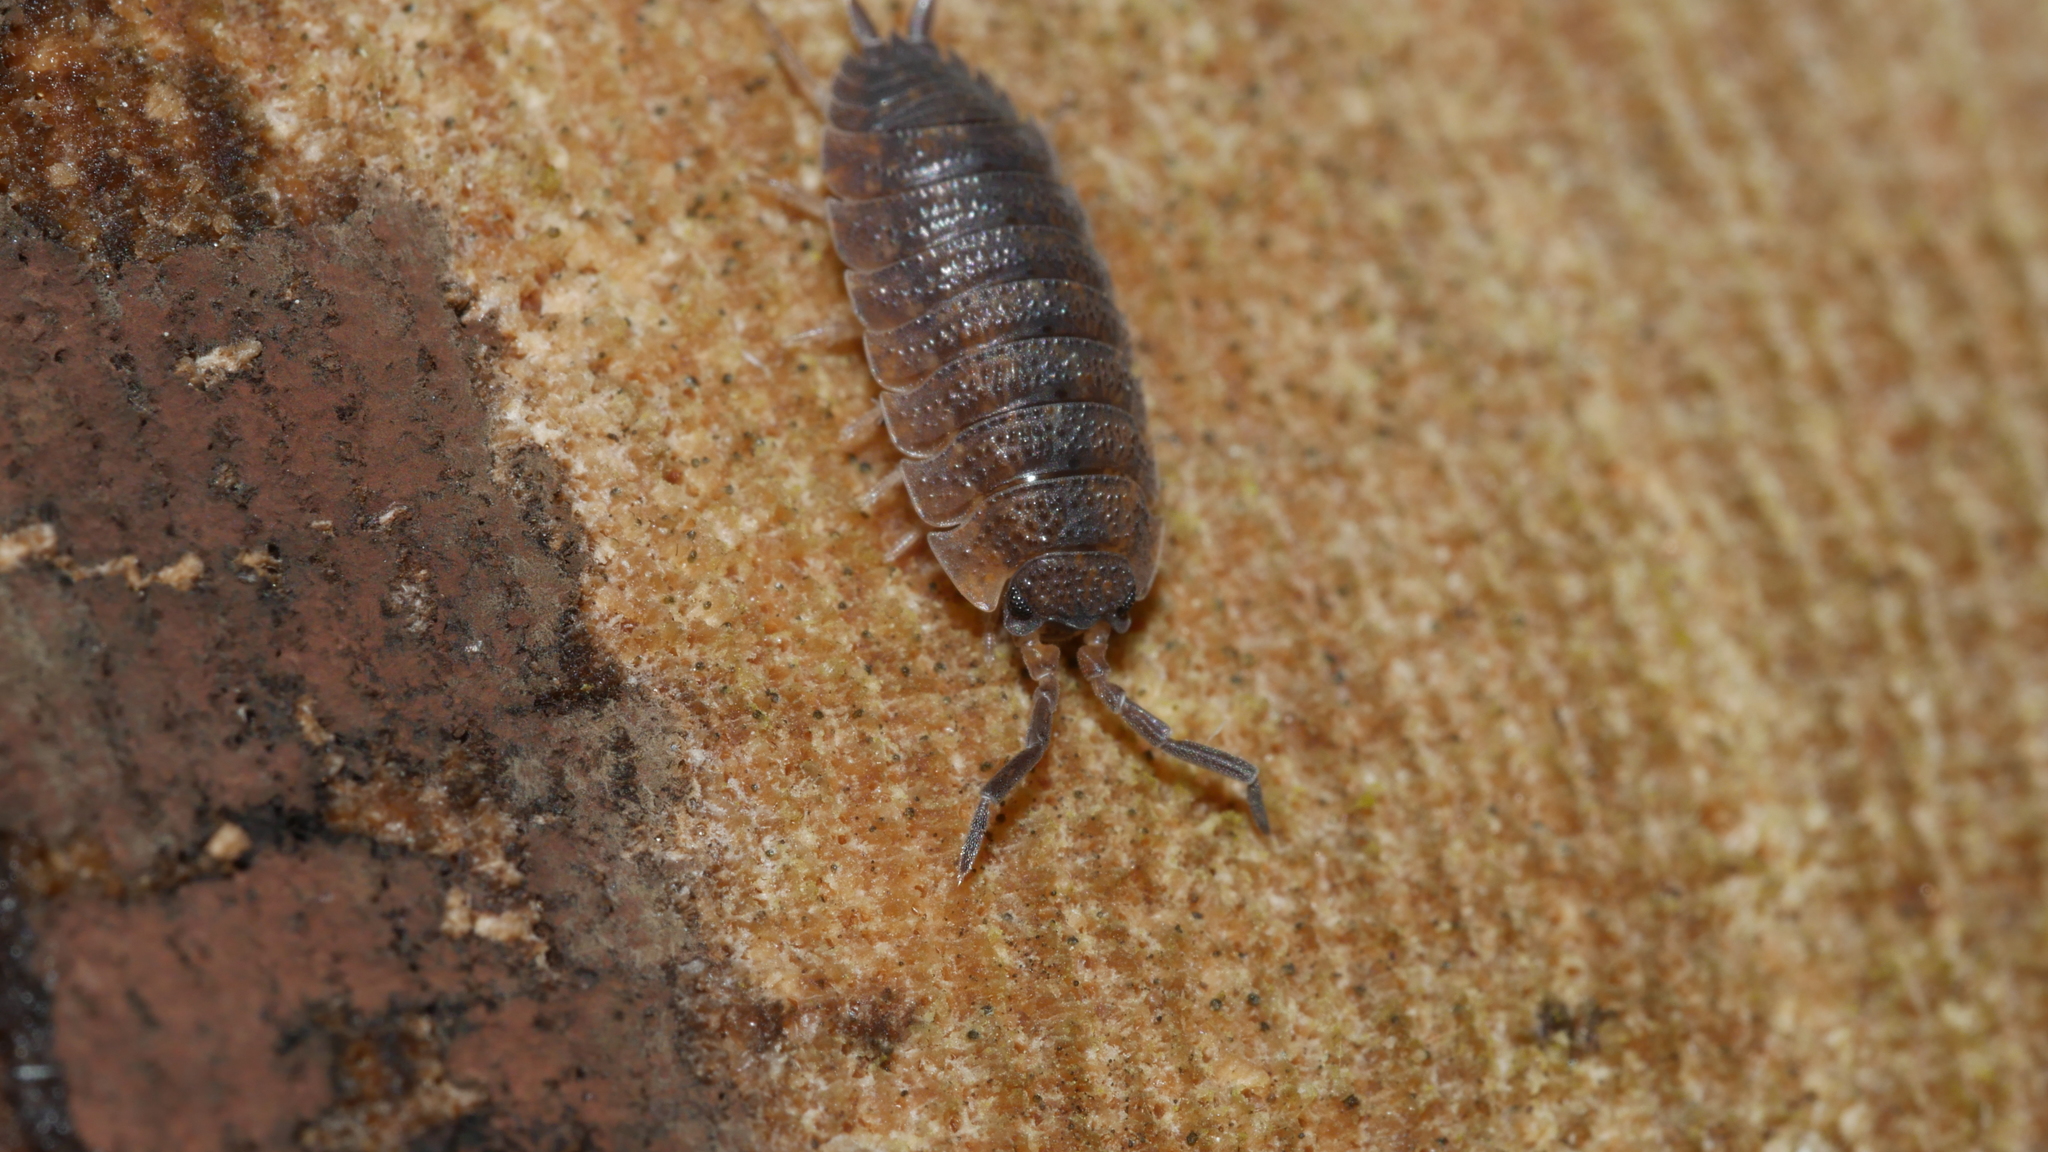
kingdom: Animalia
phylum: Arthropoda
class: Malacostraca
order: Isopoda
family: Porcellionidae
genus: Porcellio
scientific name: Porcellio scaber
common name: Common rough woodlouse
